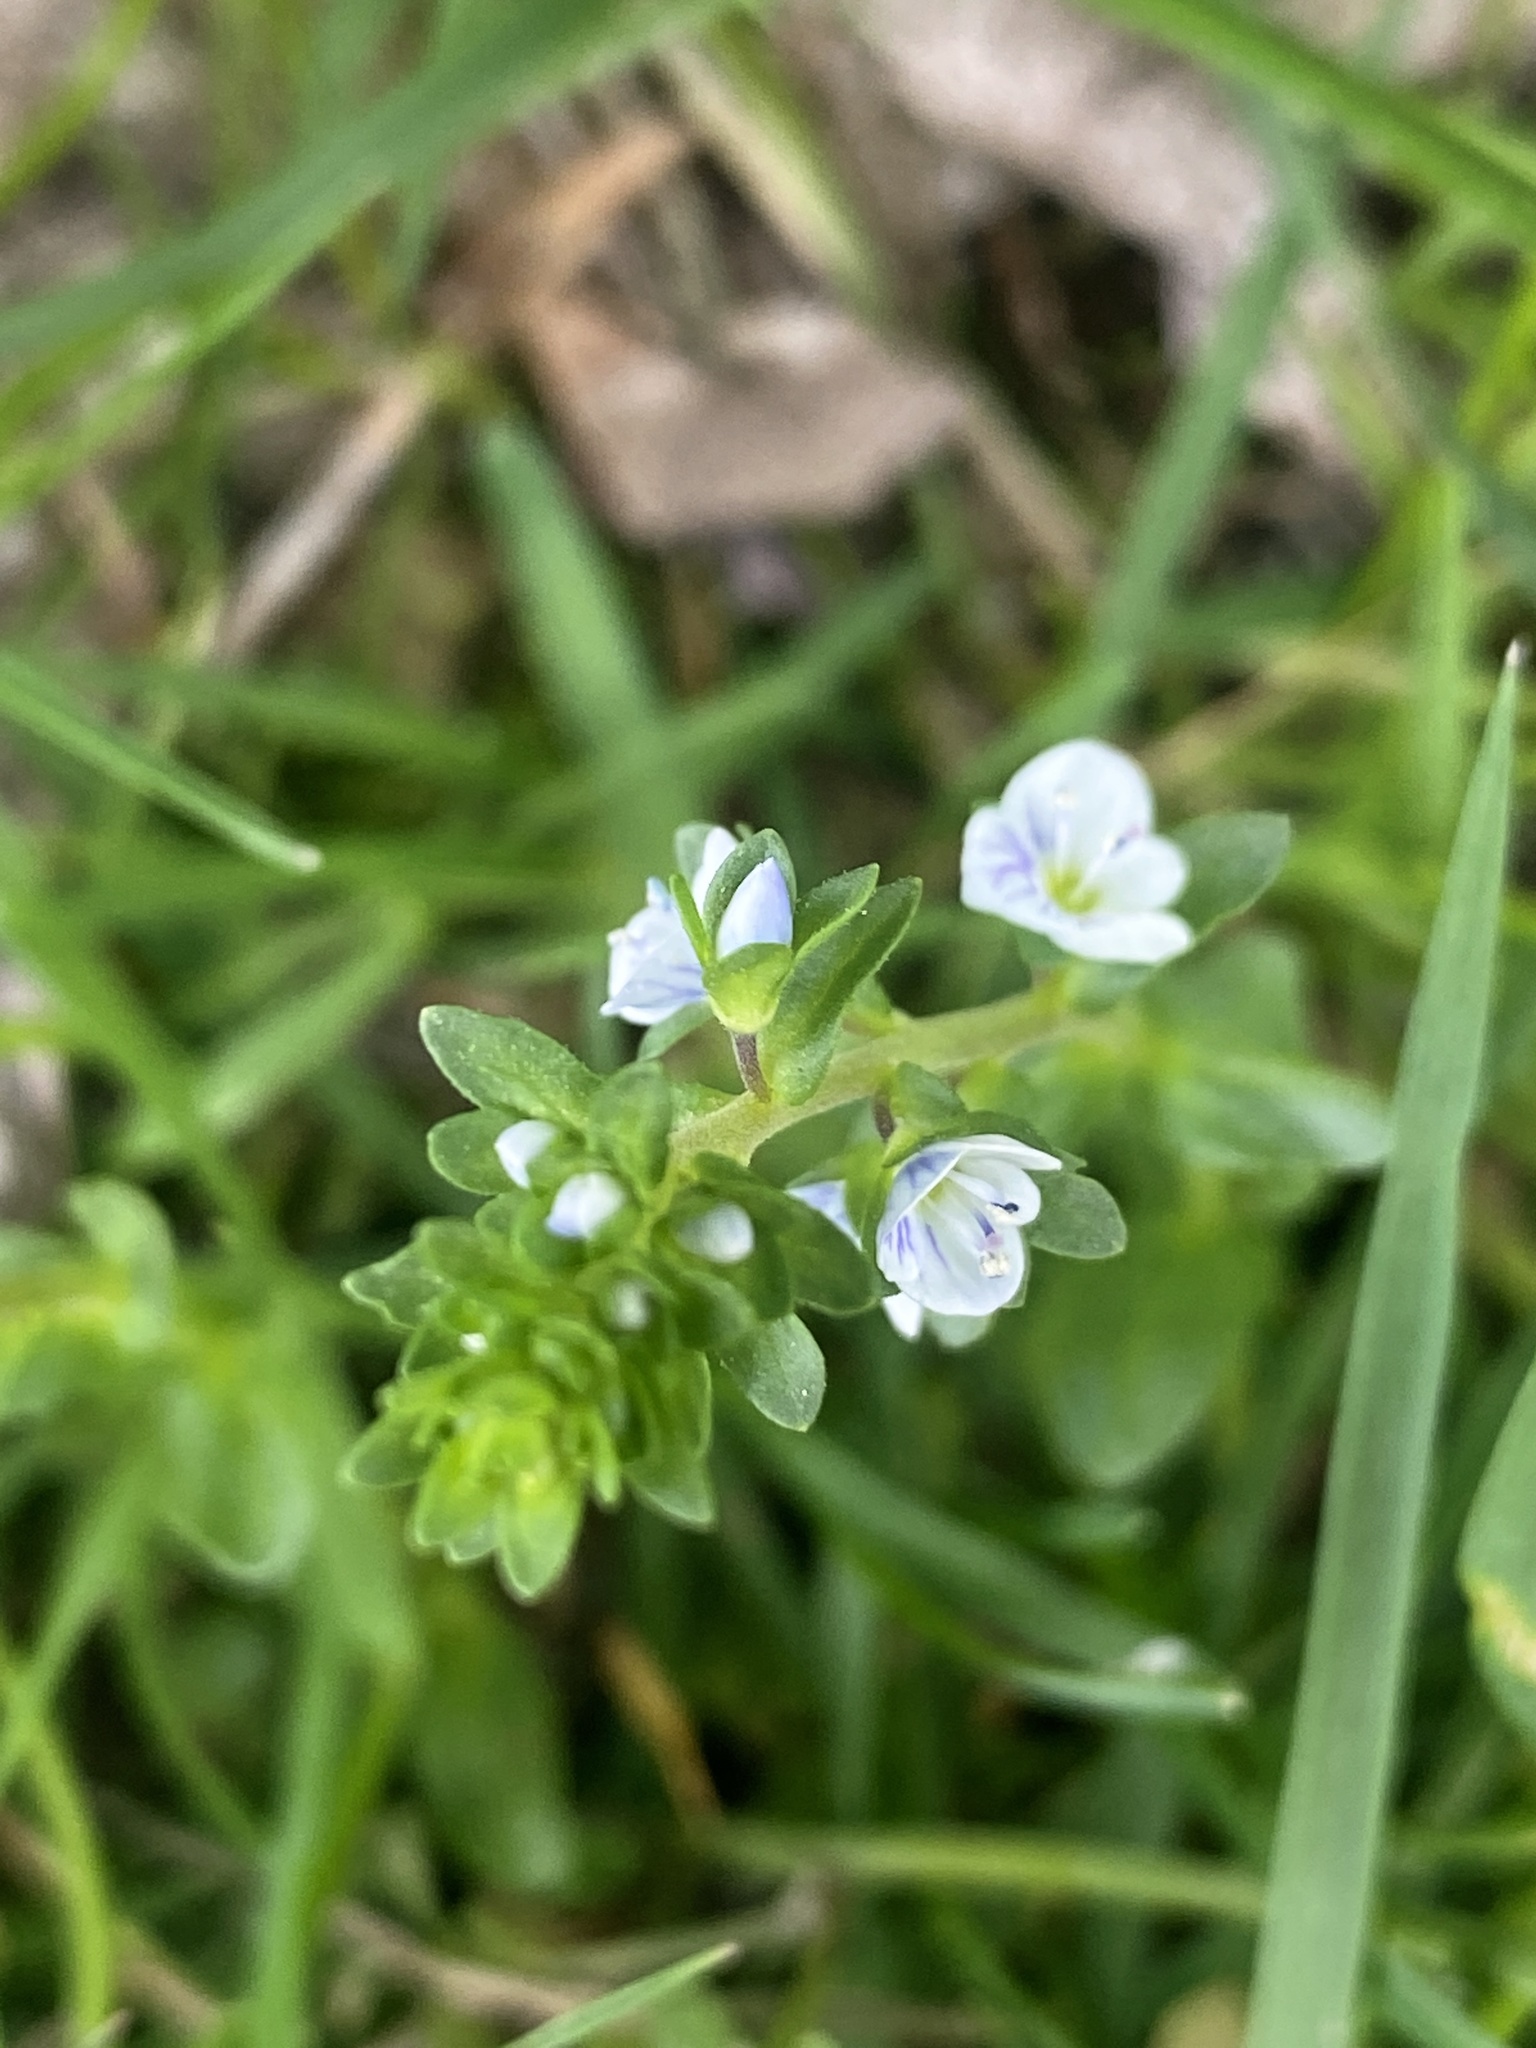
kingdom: Plantae
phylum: Tracheophyta
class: Magnoliopsida
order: Lamiales
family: Plantaginaceae
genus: Veronica
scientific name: Veronica serpyllifolia
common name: Thyme-leaved speedwell
